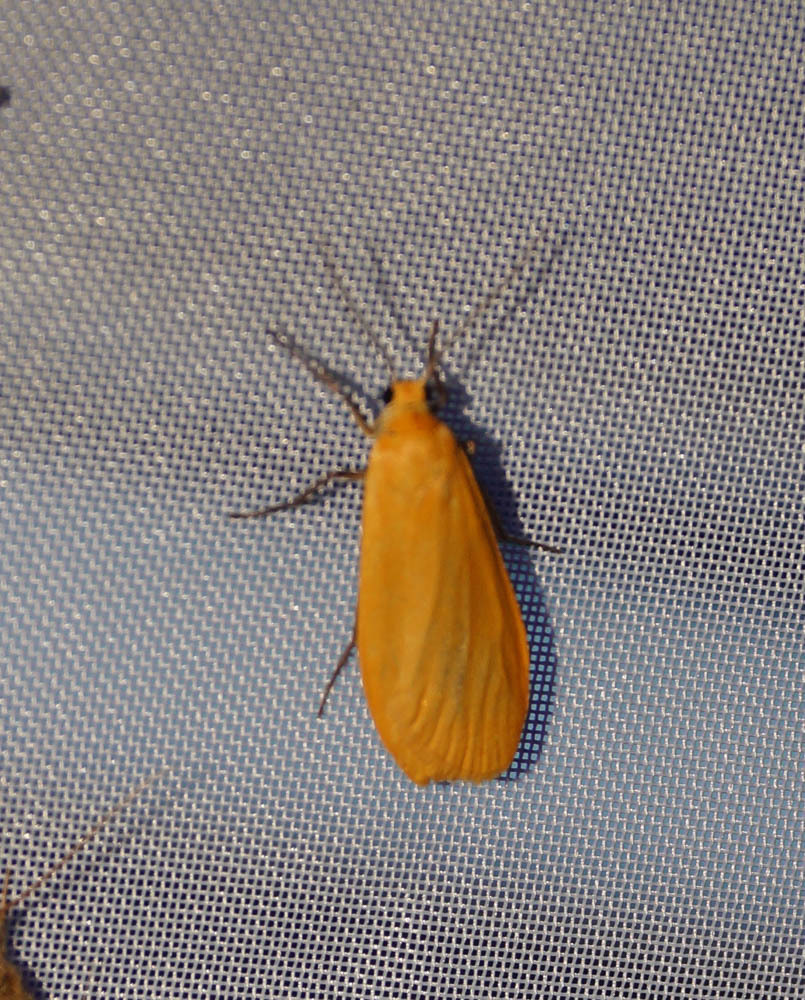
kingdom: Animalia
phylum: Arthropoda
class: Insecta
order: Lepidoptera
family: Erebidae
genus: Wittia
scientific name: Wittia sororcula
